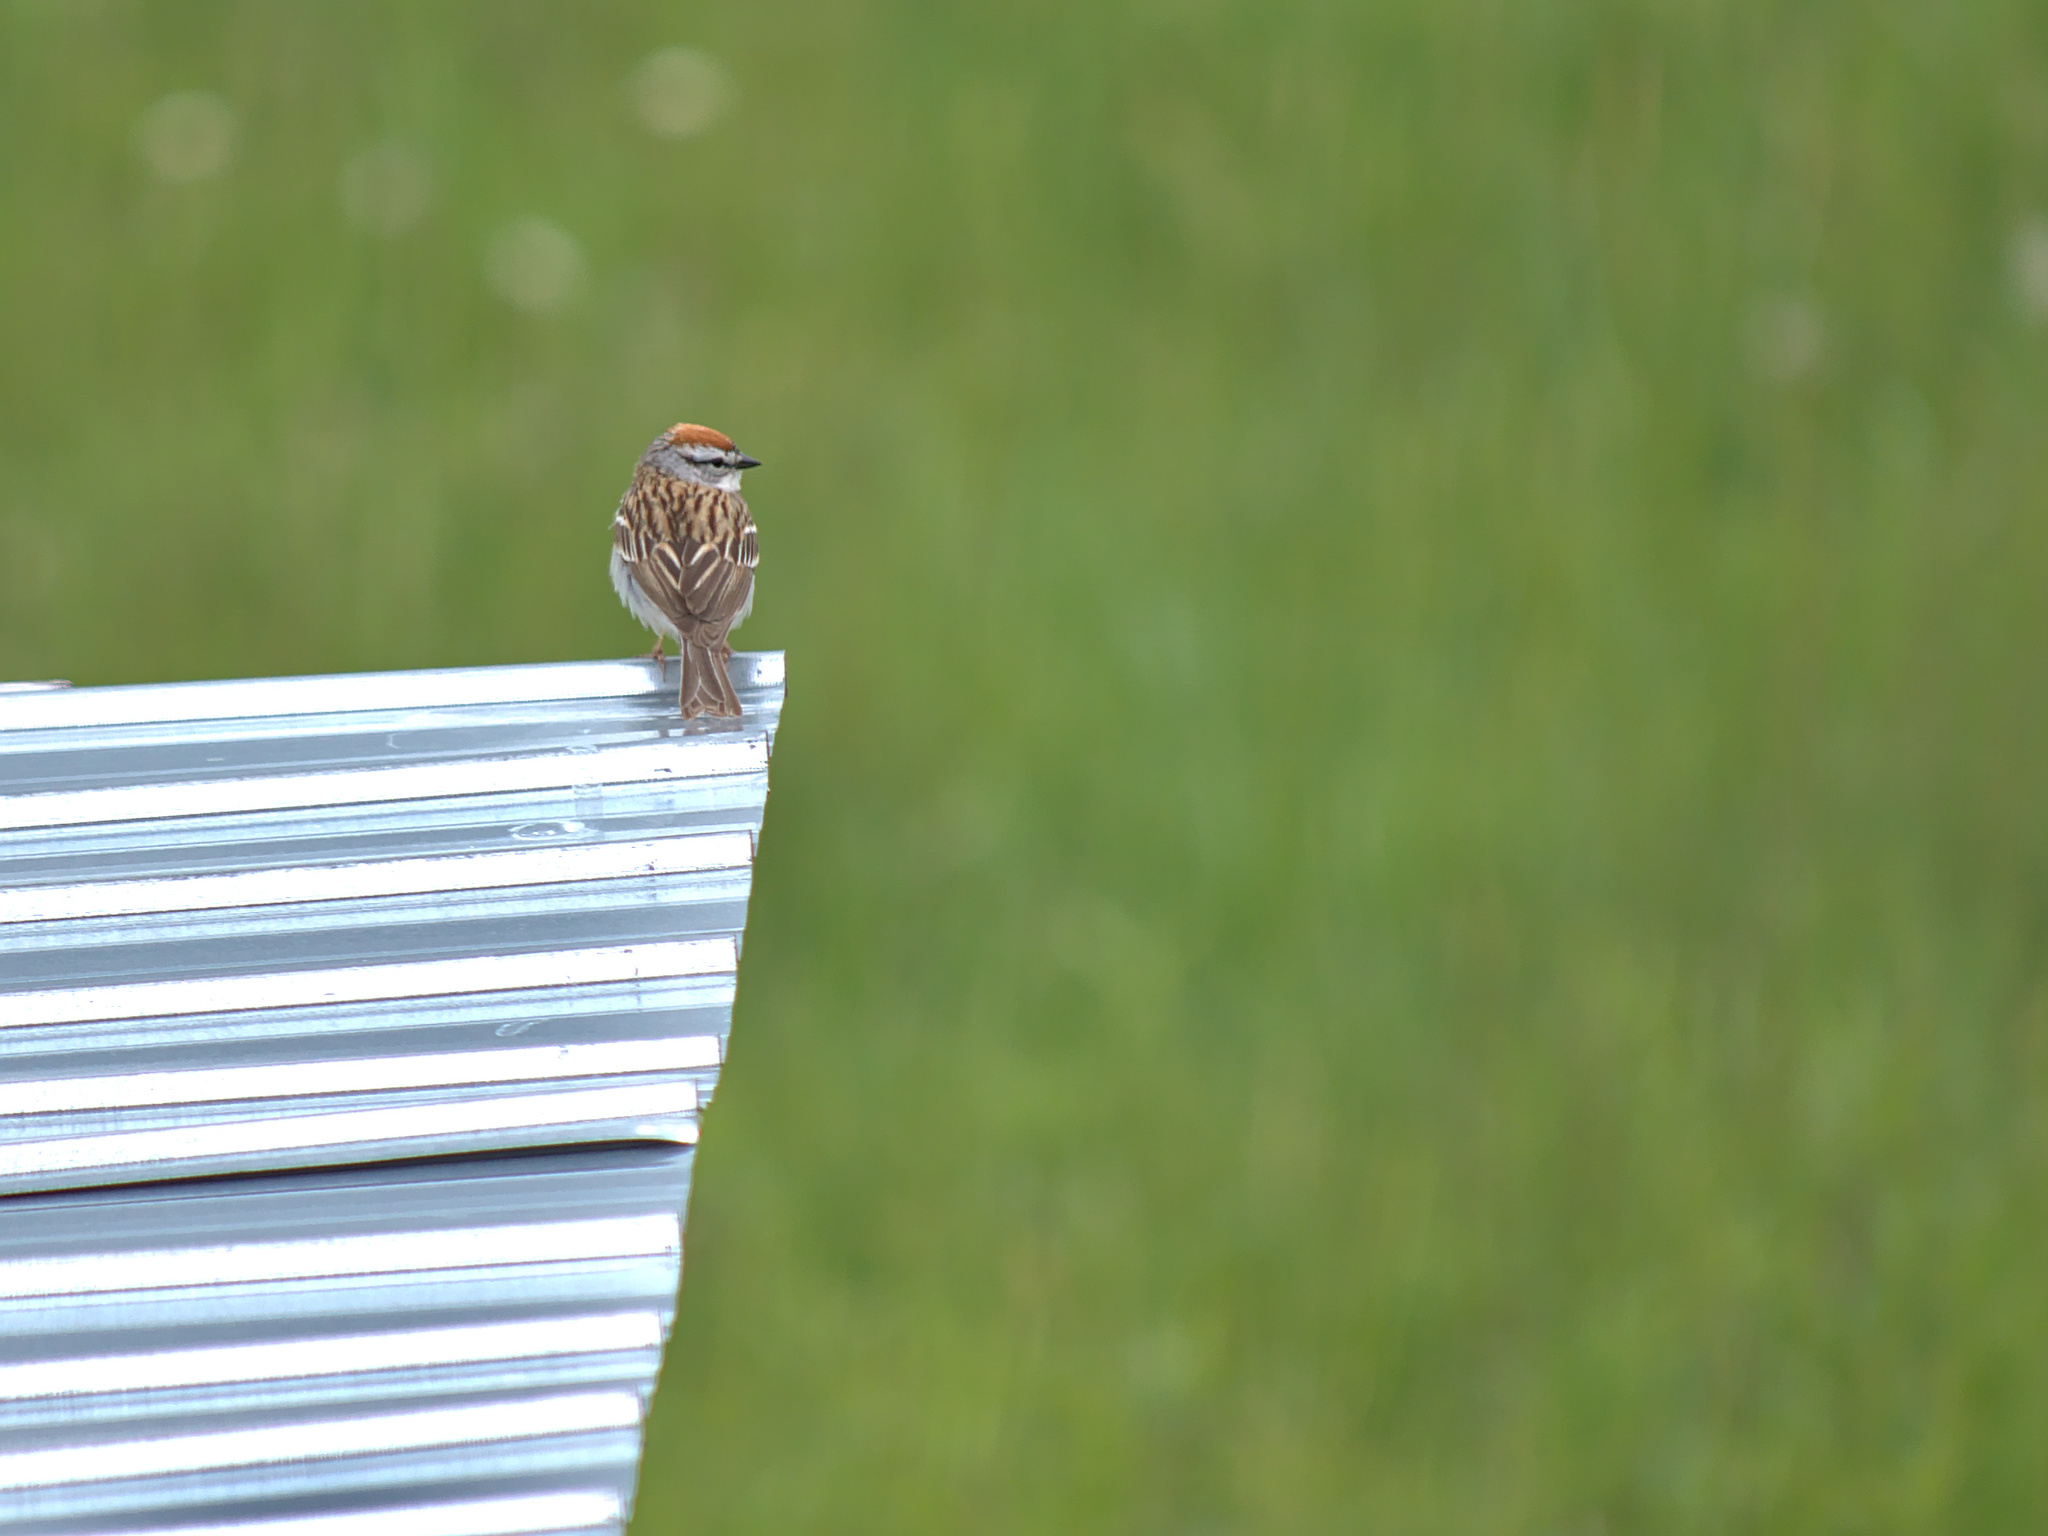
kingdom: Animalia
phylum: Chordata
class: Aves
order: Passeriformes
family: Passerellidae
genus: Spizella
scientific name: Spizella passerina
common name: Chipping sparrow
